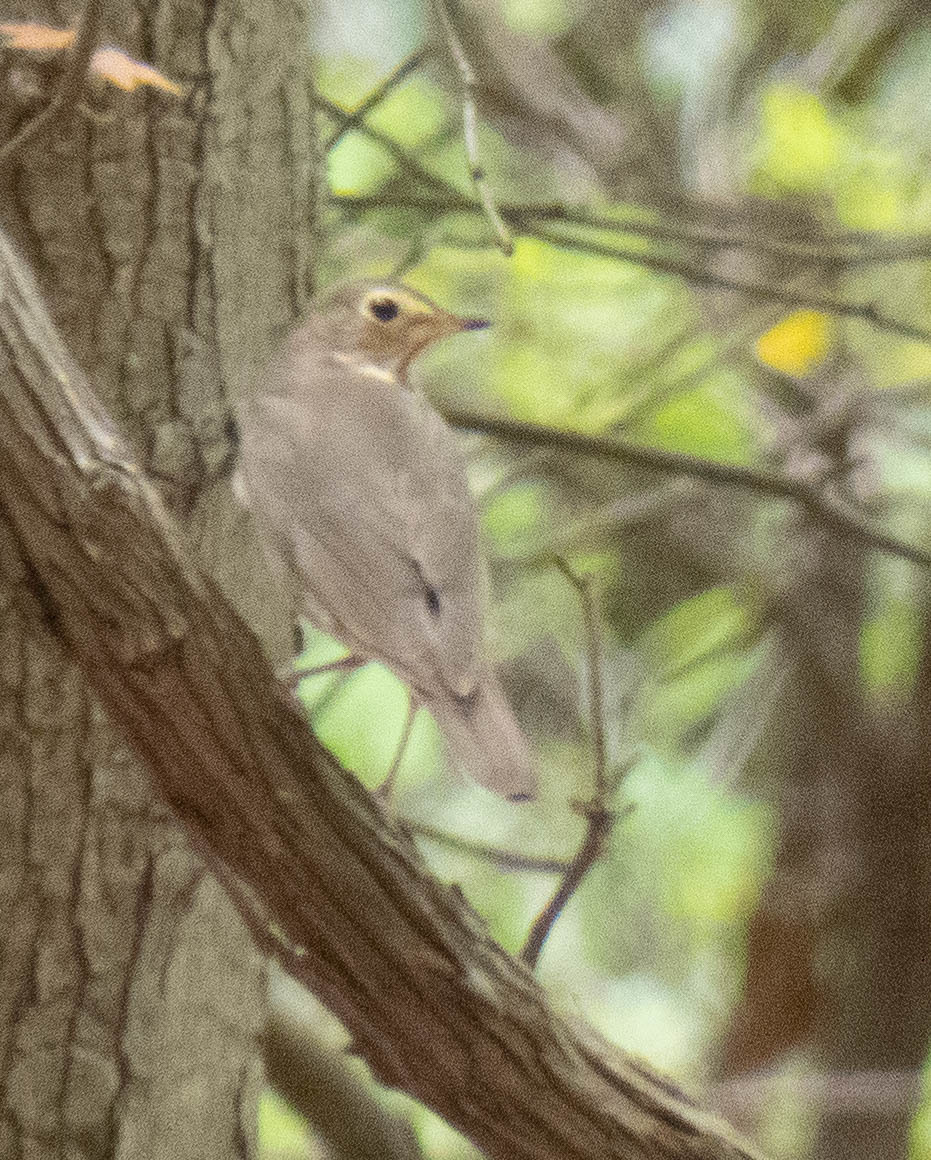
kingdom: Animalia
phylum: Chordata
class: Aves
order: Passeriformes
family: Turdidae
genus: Catharus
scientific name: Catharus ustulatus
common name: Swainson's thrush
